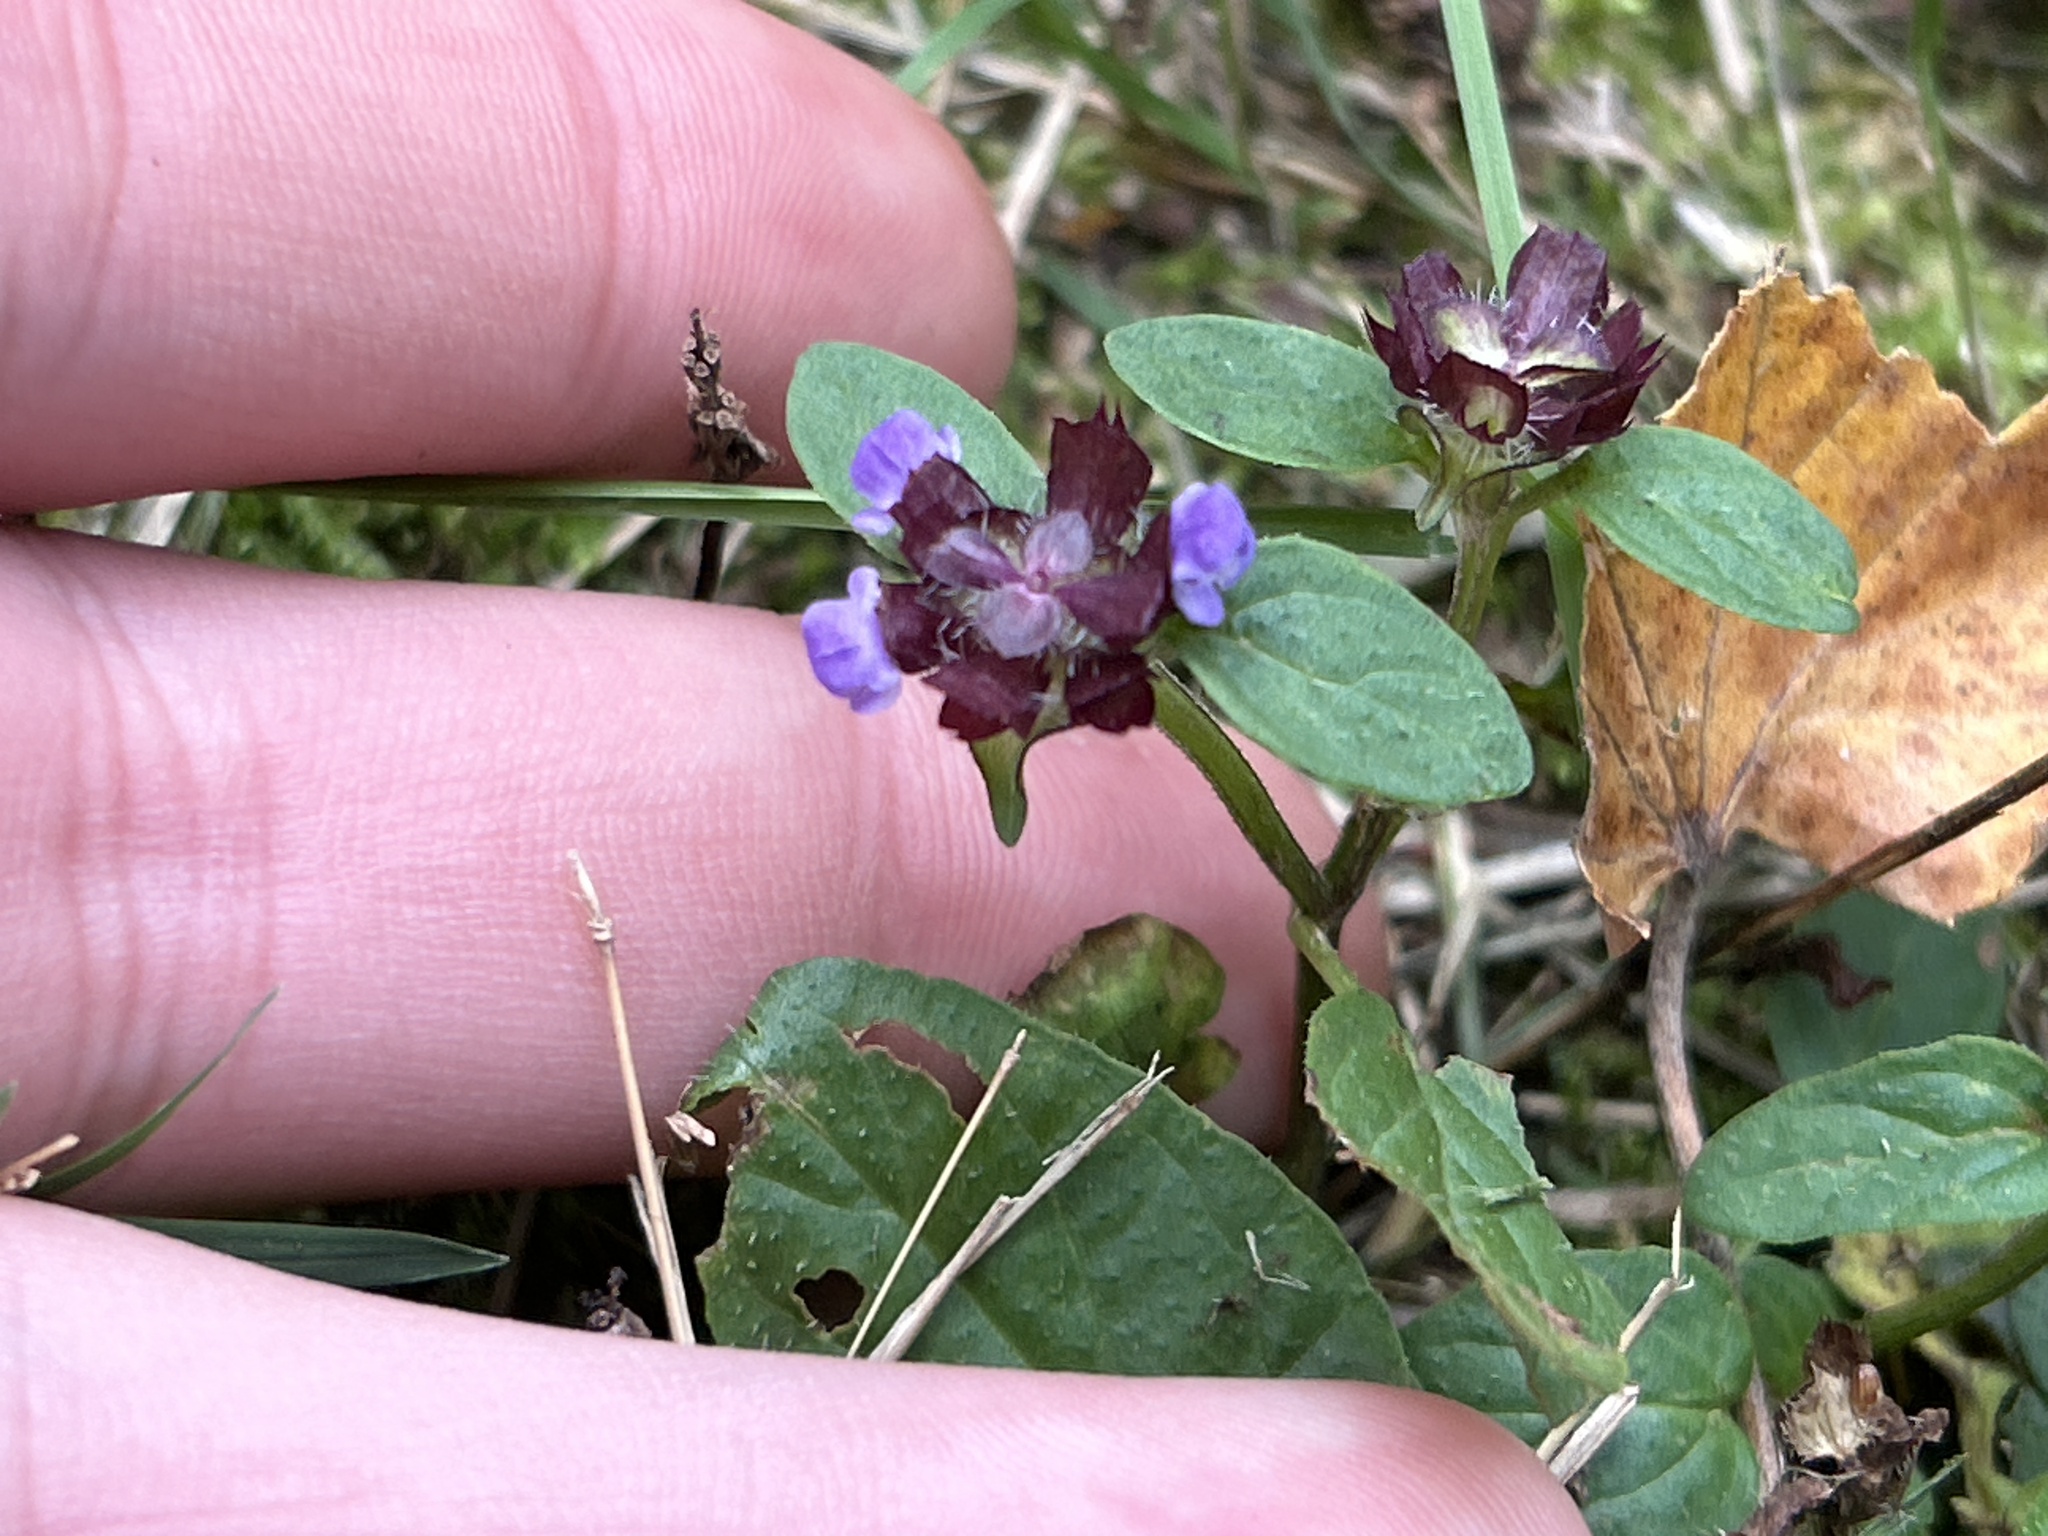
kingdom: Plantae
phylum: Tracheophyta
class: Magnoliopsida
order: Lamiales
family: Lamiaceae
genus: Prunella
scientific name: Prunella vulgaris
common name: Heal-all
